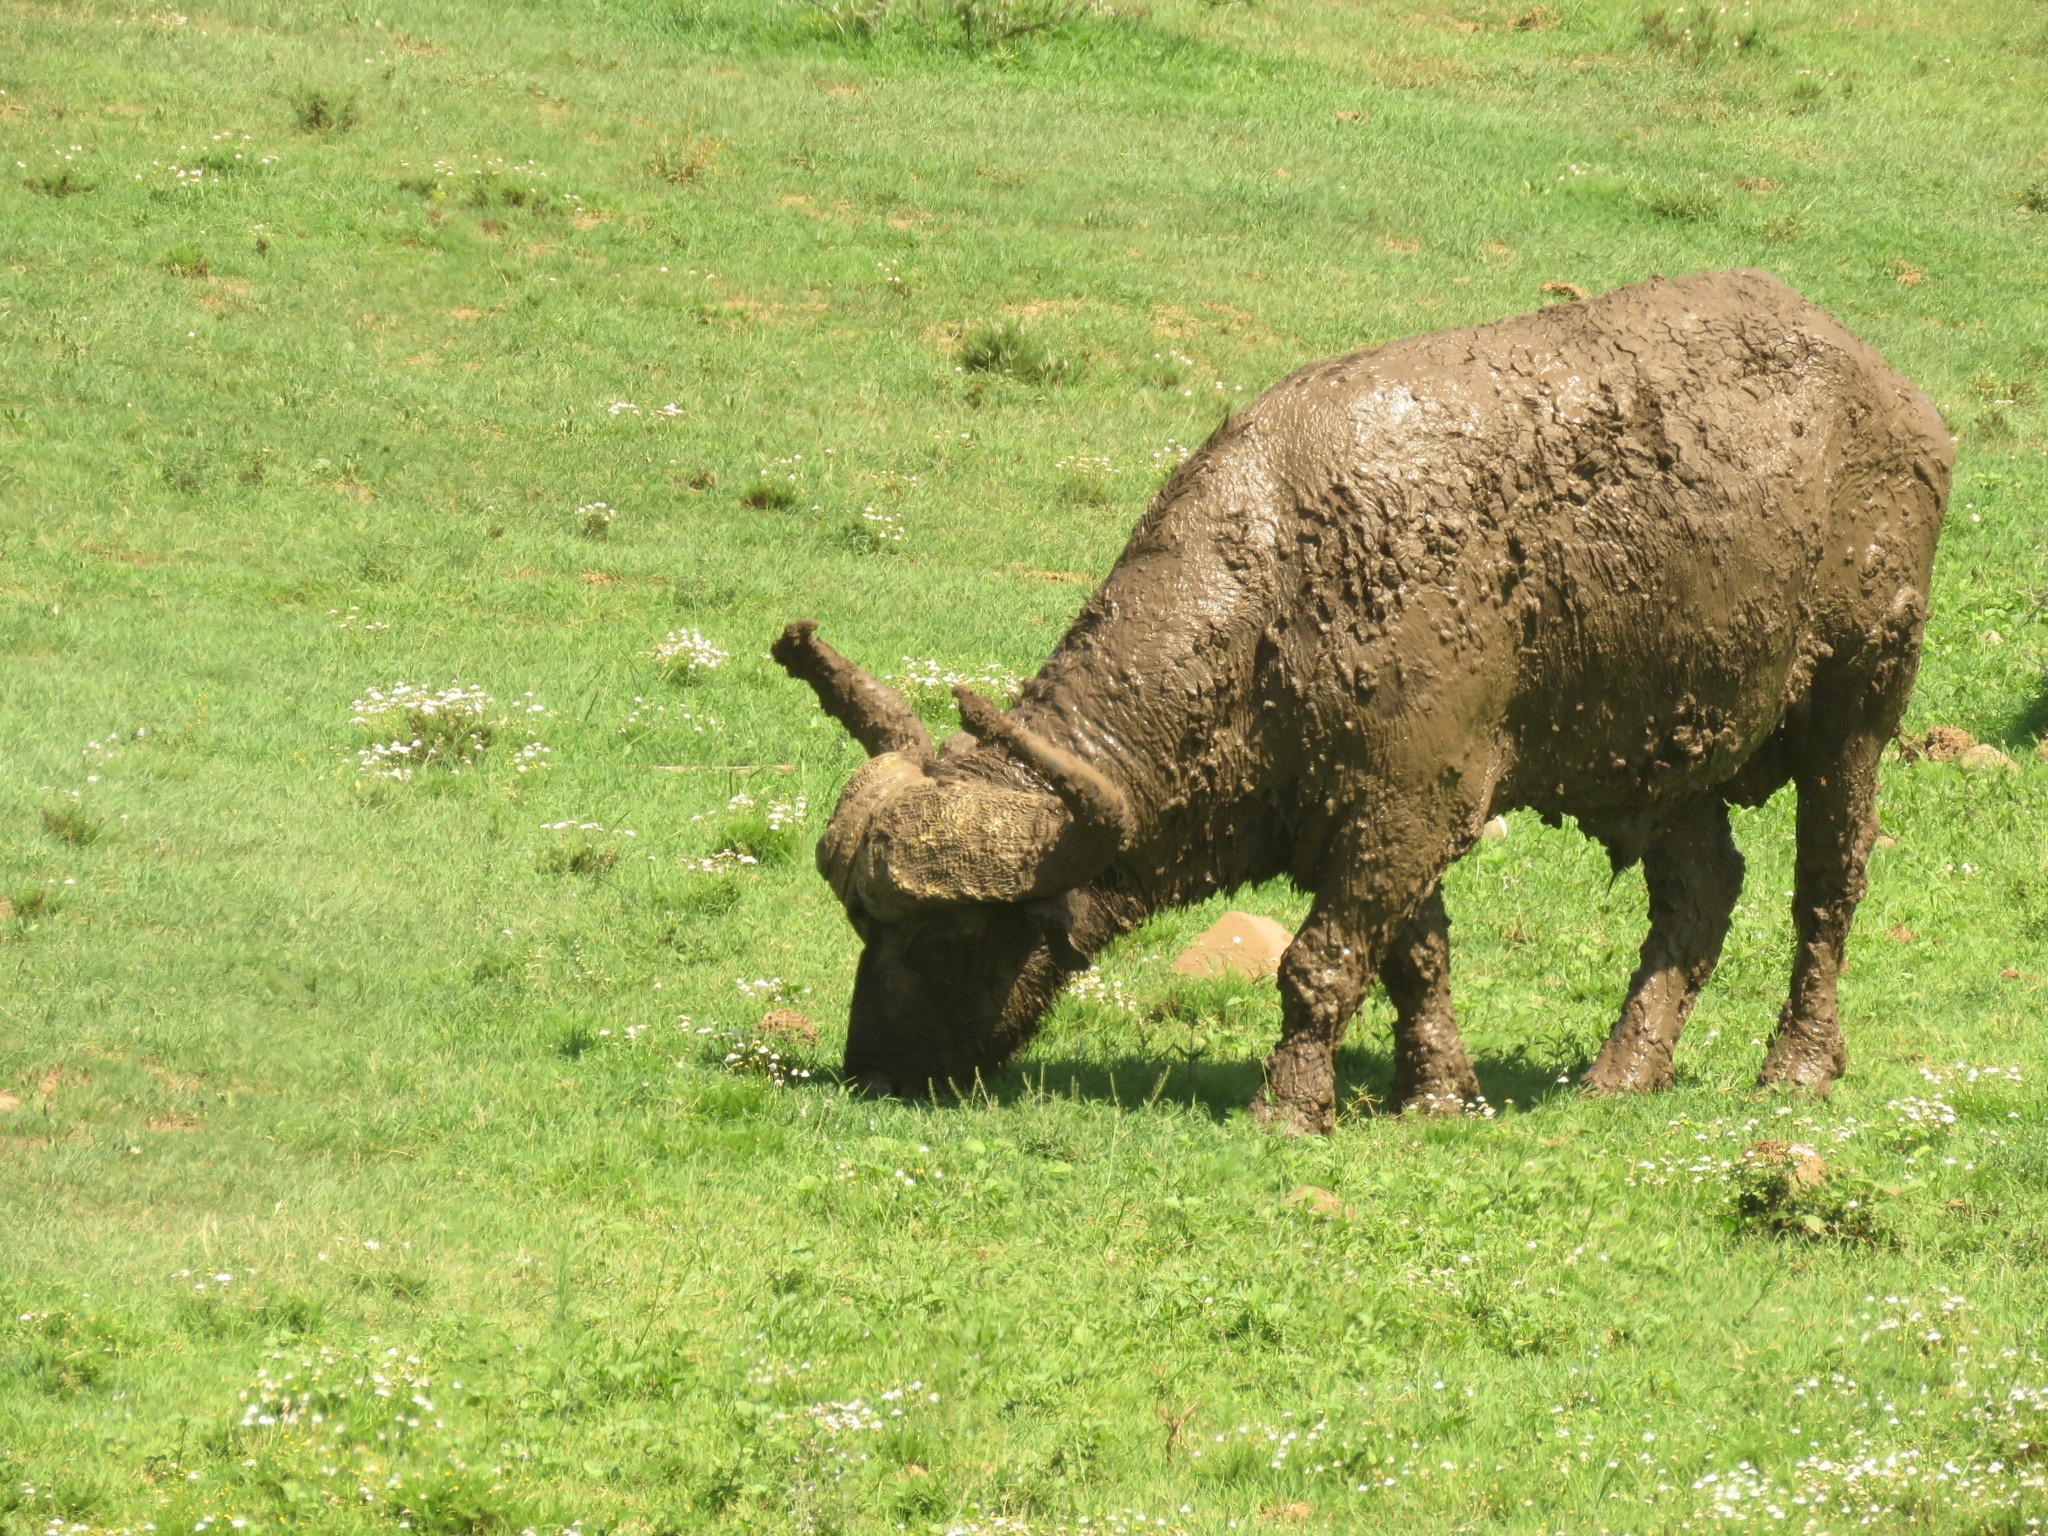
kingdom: Animalia
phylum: Chordata
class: Mammalia
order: Artiodactyla
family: Bovidae
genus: Syncerus
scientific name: Syncerus caffer
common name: African buffalo
